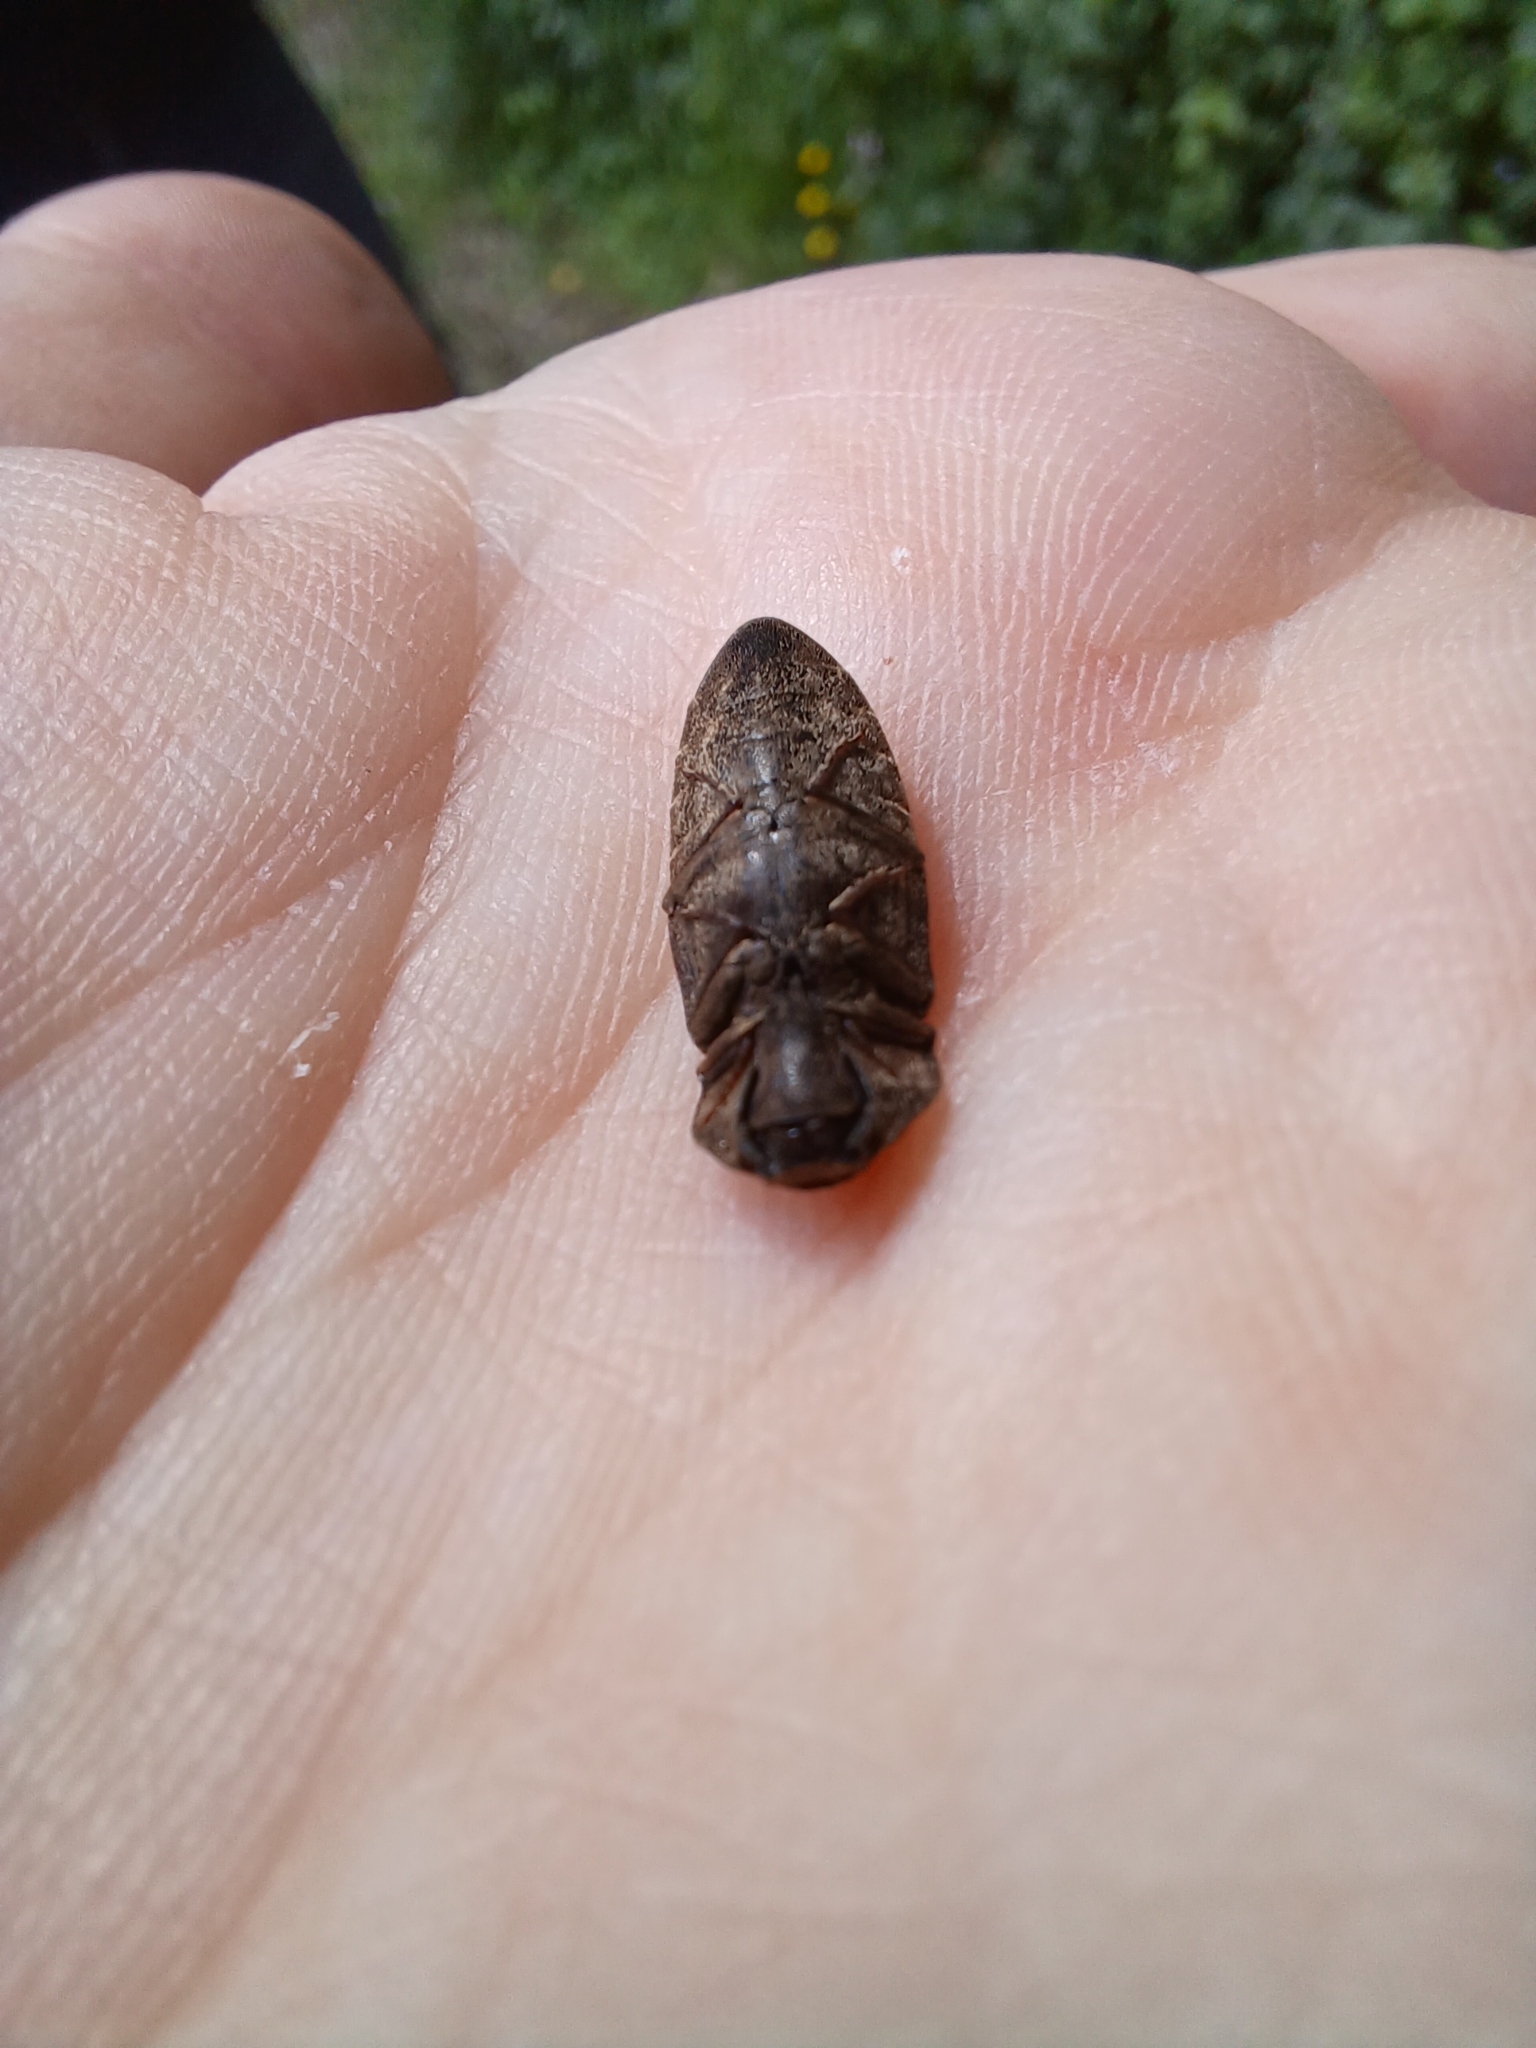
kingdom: Animalia
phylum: Arthropoda
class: Insecta
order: Coleoptera
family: Elateridae
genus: Agrypnus
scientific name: Agrypnus murinus
